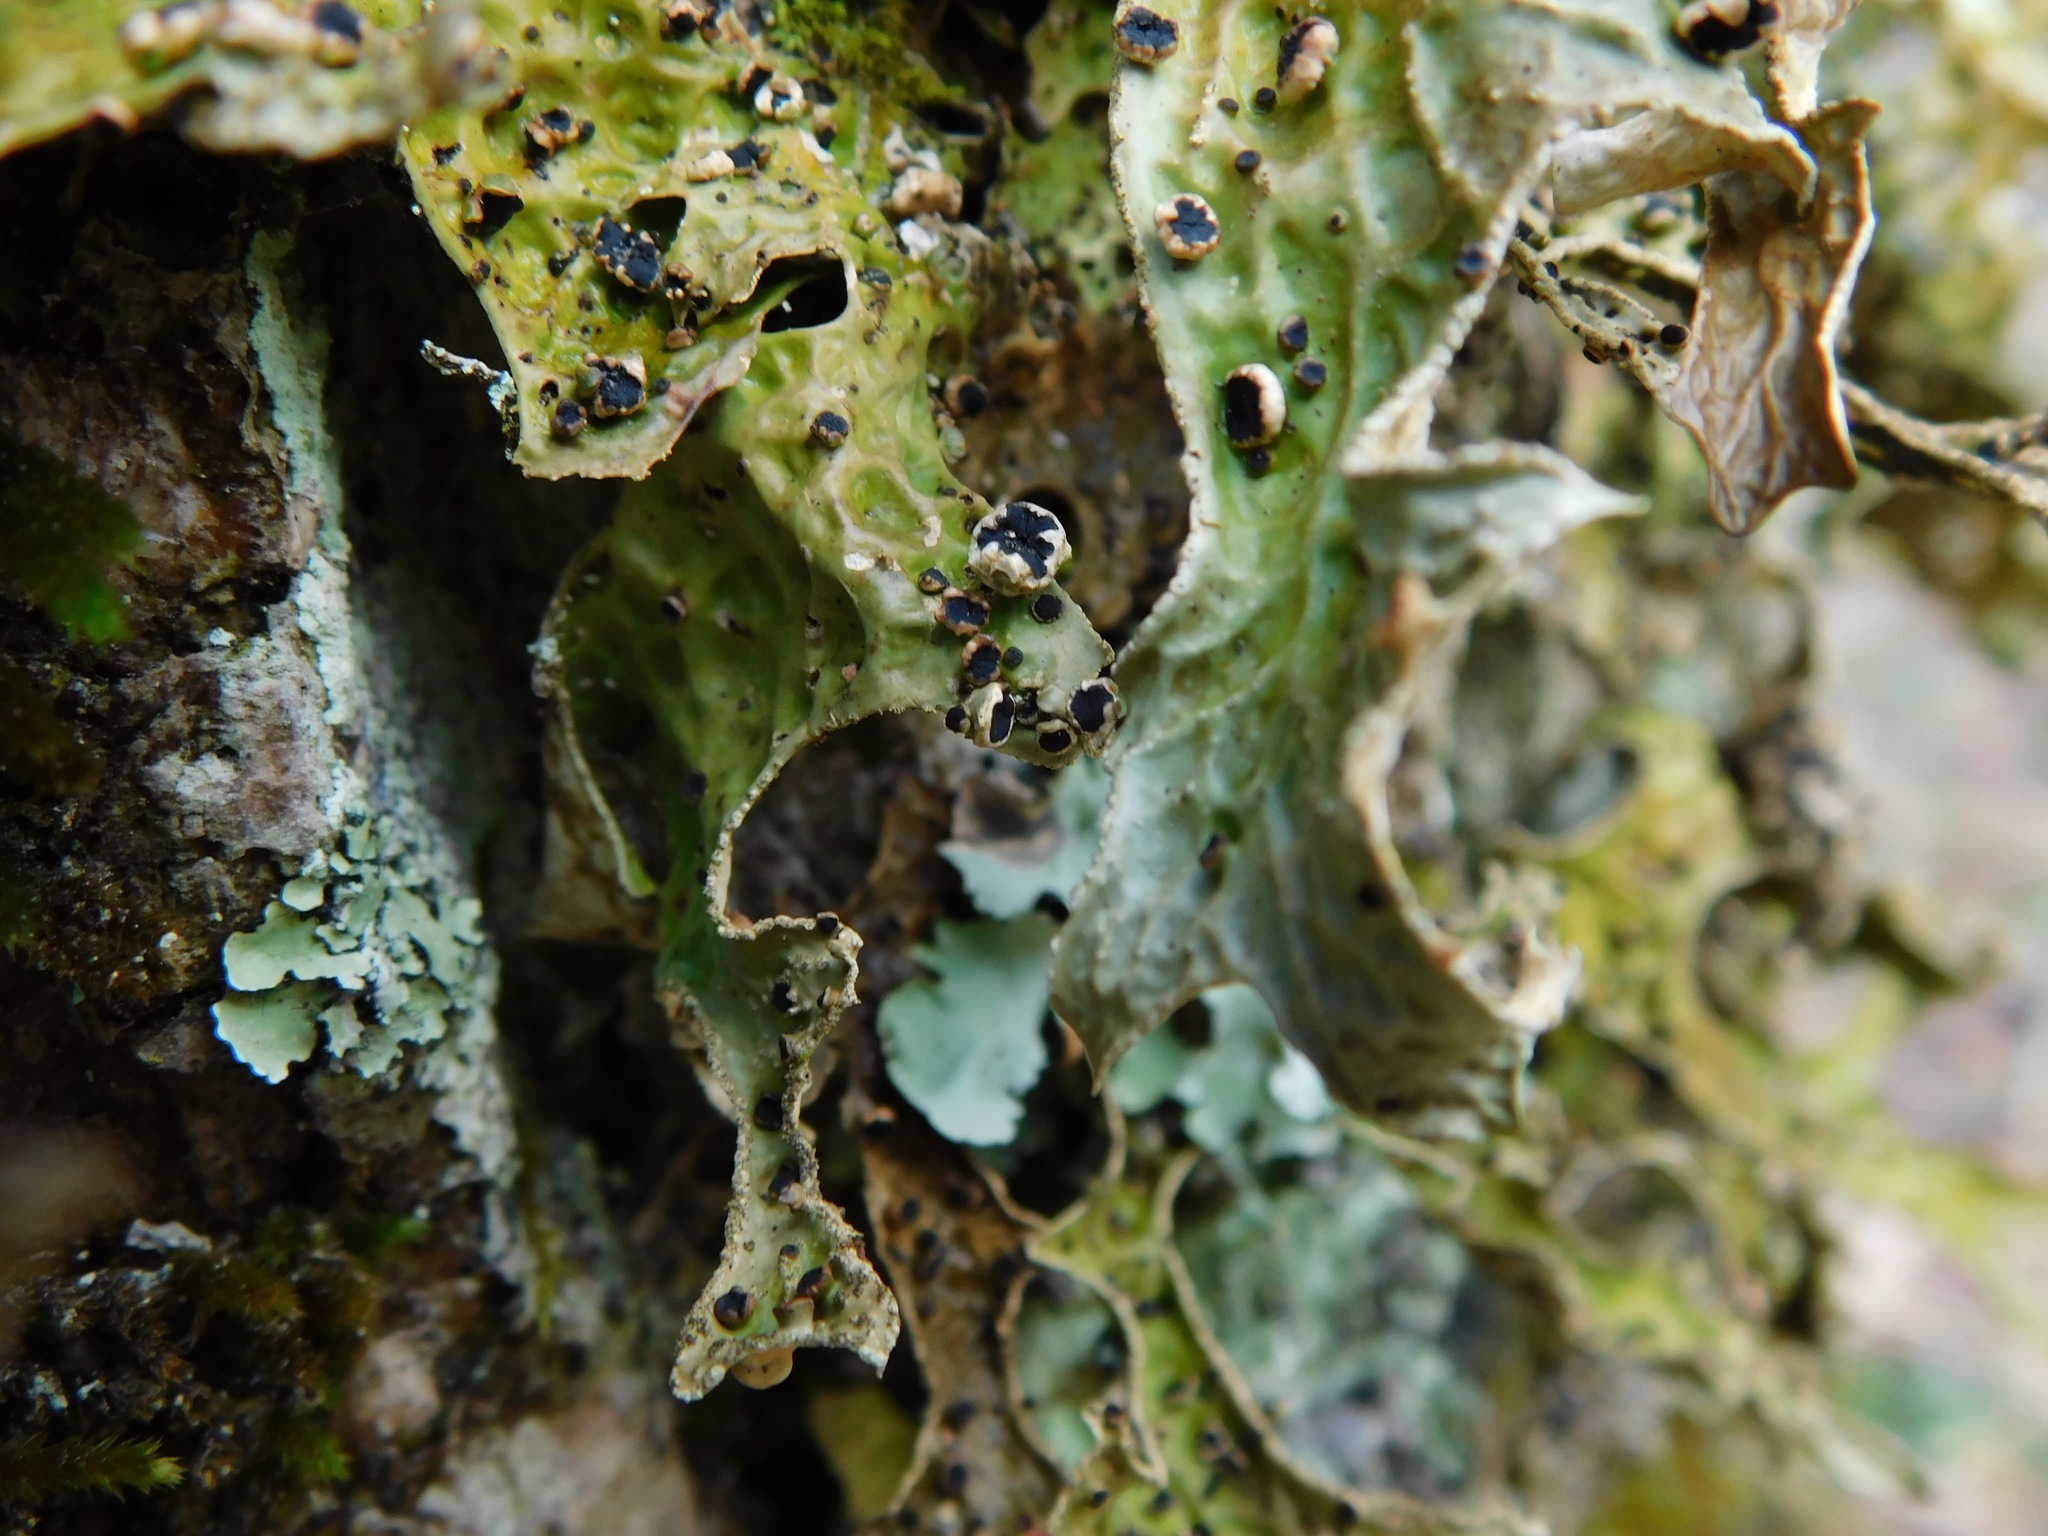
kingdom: Fungi
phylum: Ascomycota
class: Lecanoromycetes
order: Peltigerales
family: Lobariaceae
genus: Lobaria
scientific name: Lobaria pulmonaria
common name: Lungwort
